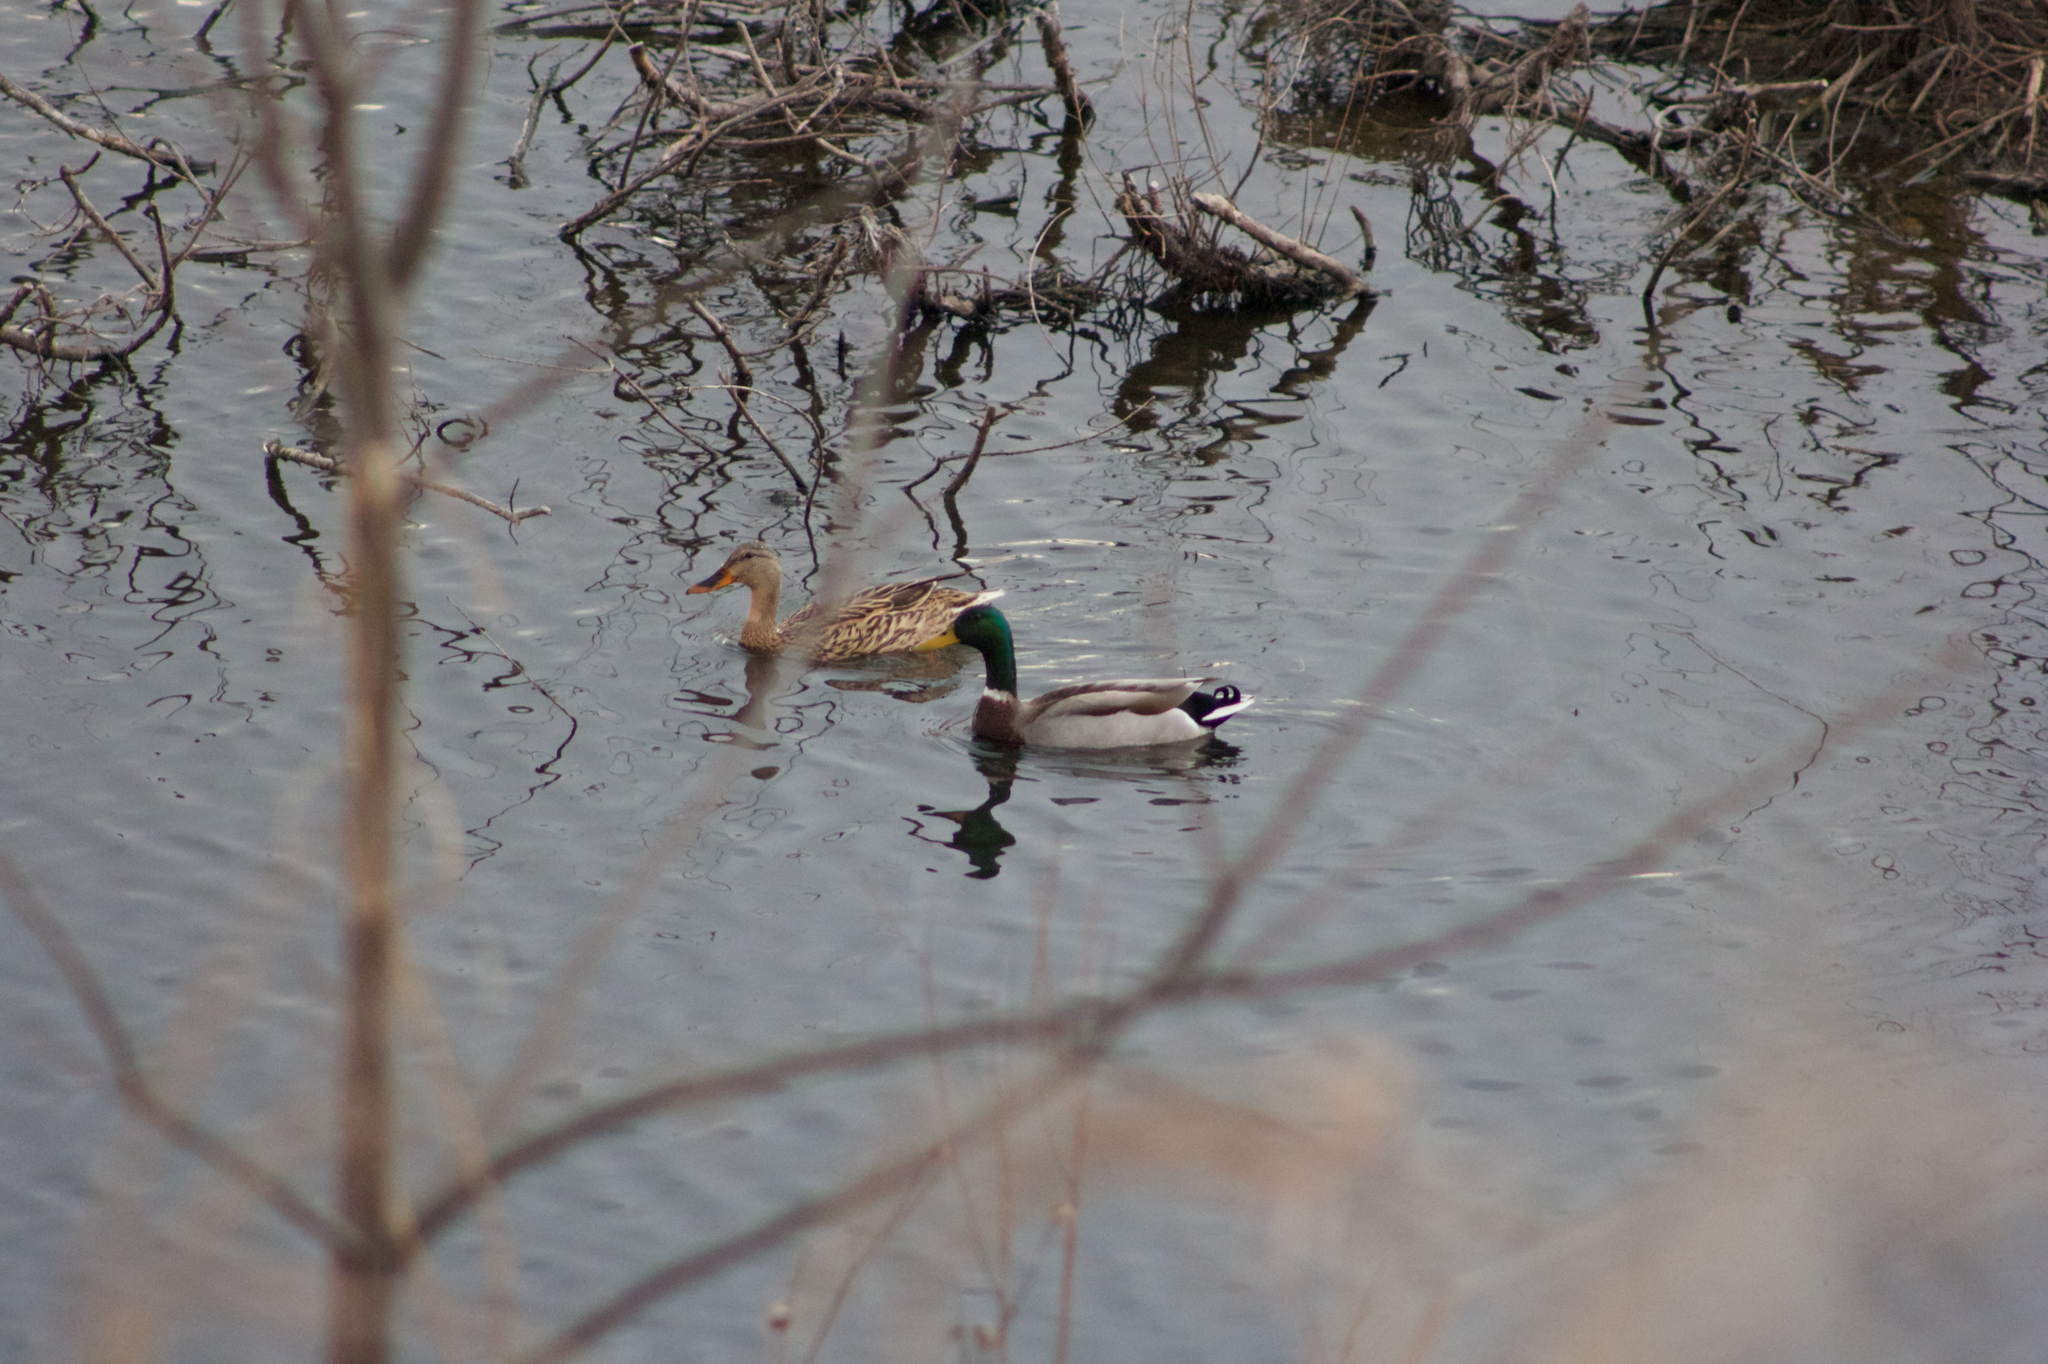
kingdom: Animalia
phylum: Chordata
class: Aves
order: Anseriformes
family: Anatidae
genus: Anas
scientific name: Anas platyrhynchos
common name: Mallard
